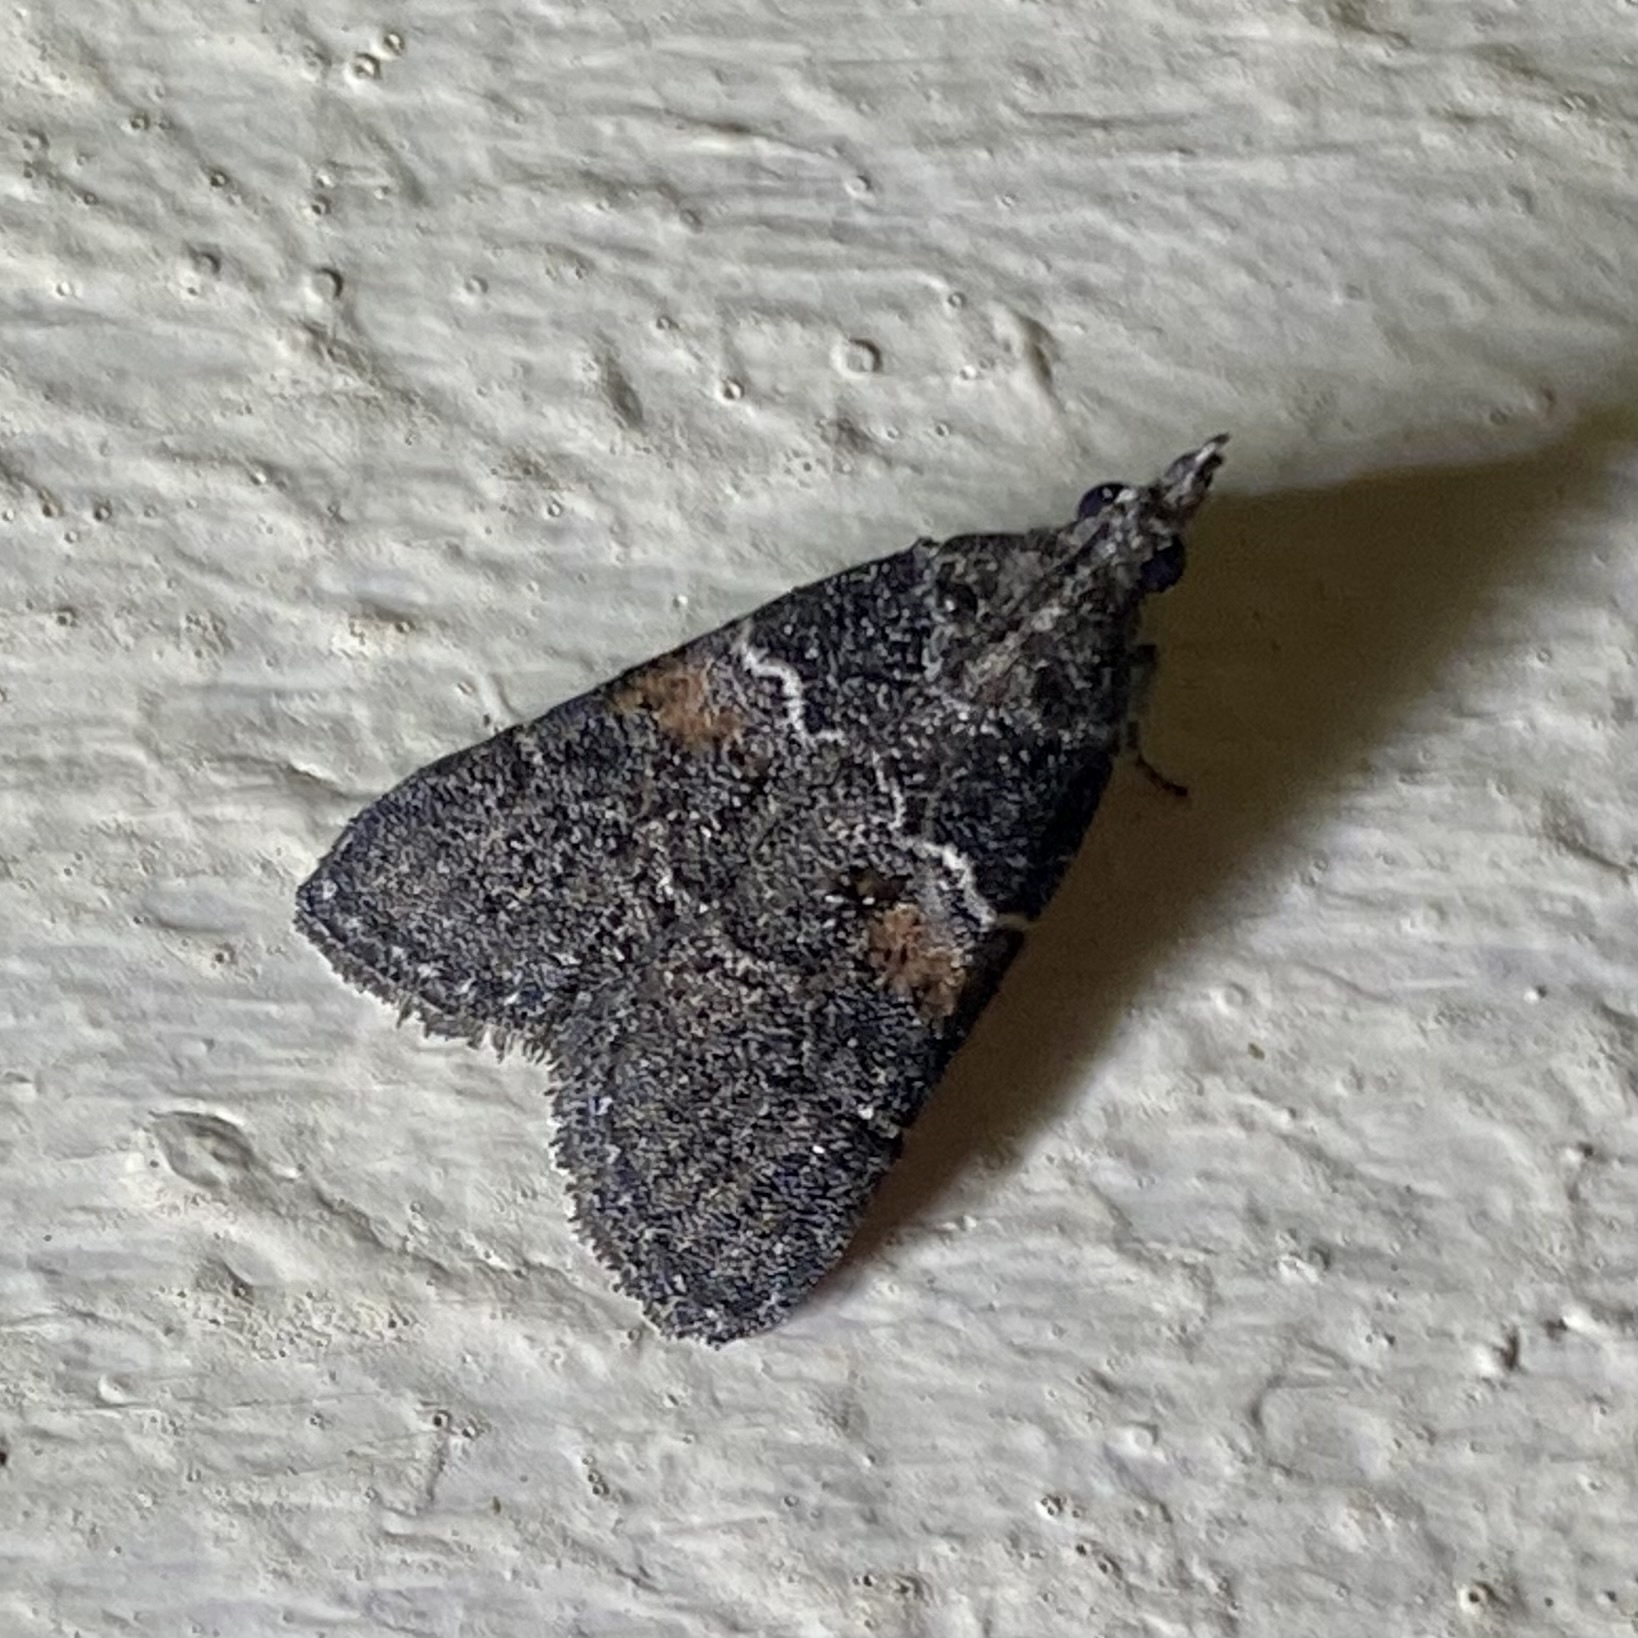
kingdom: Animalia
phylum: Arthropoda
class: Insecta
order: Lepidoptera
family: Pyralidae
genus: Satole
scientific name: Satole ligniperdalis
